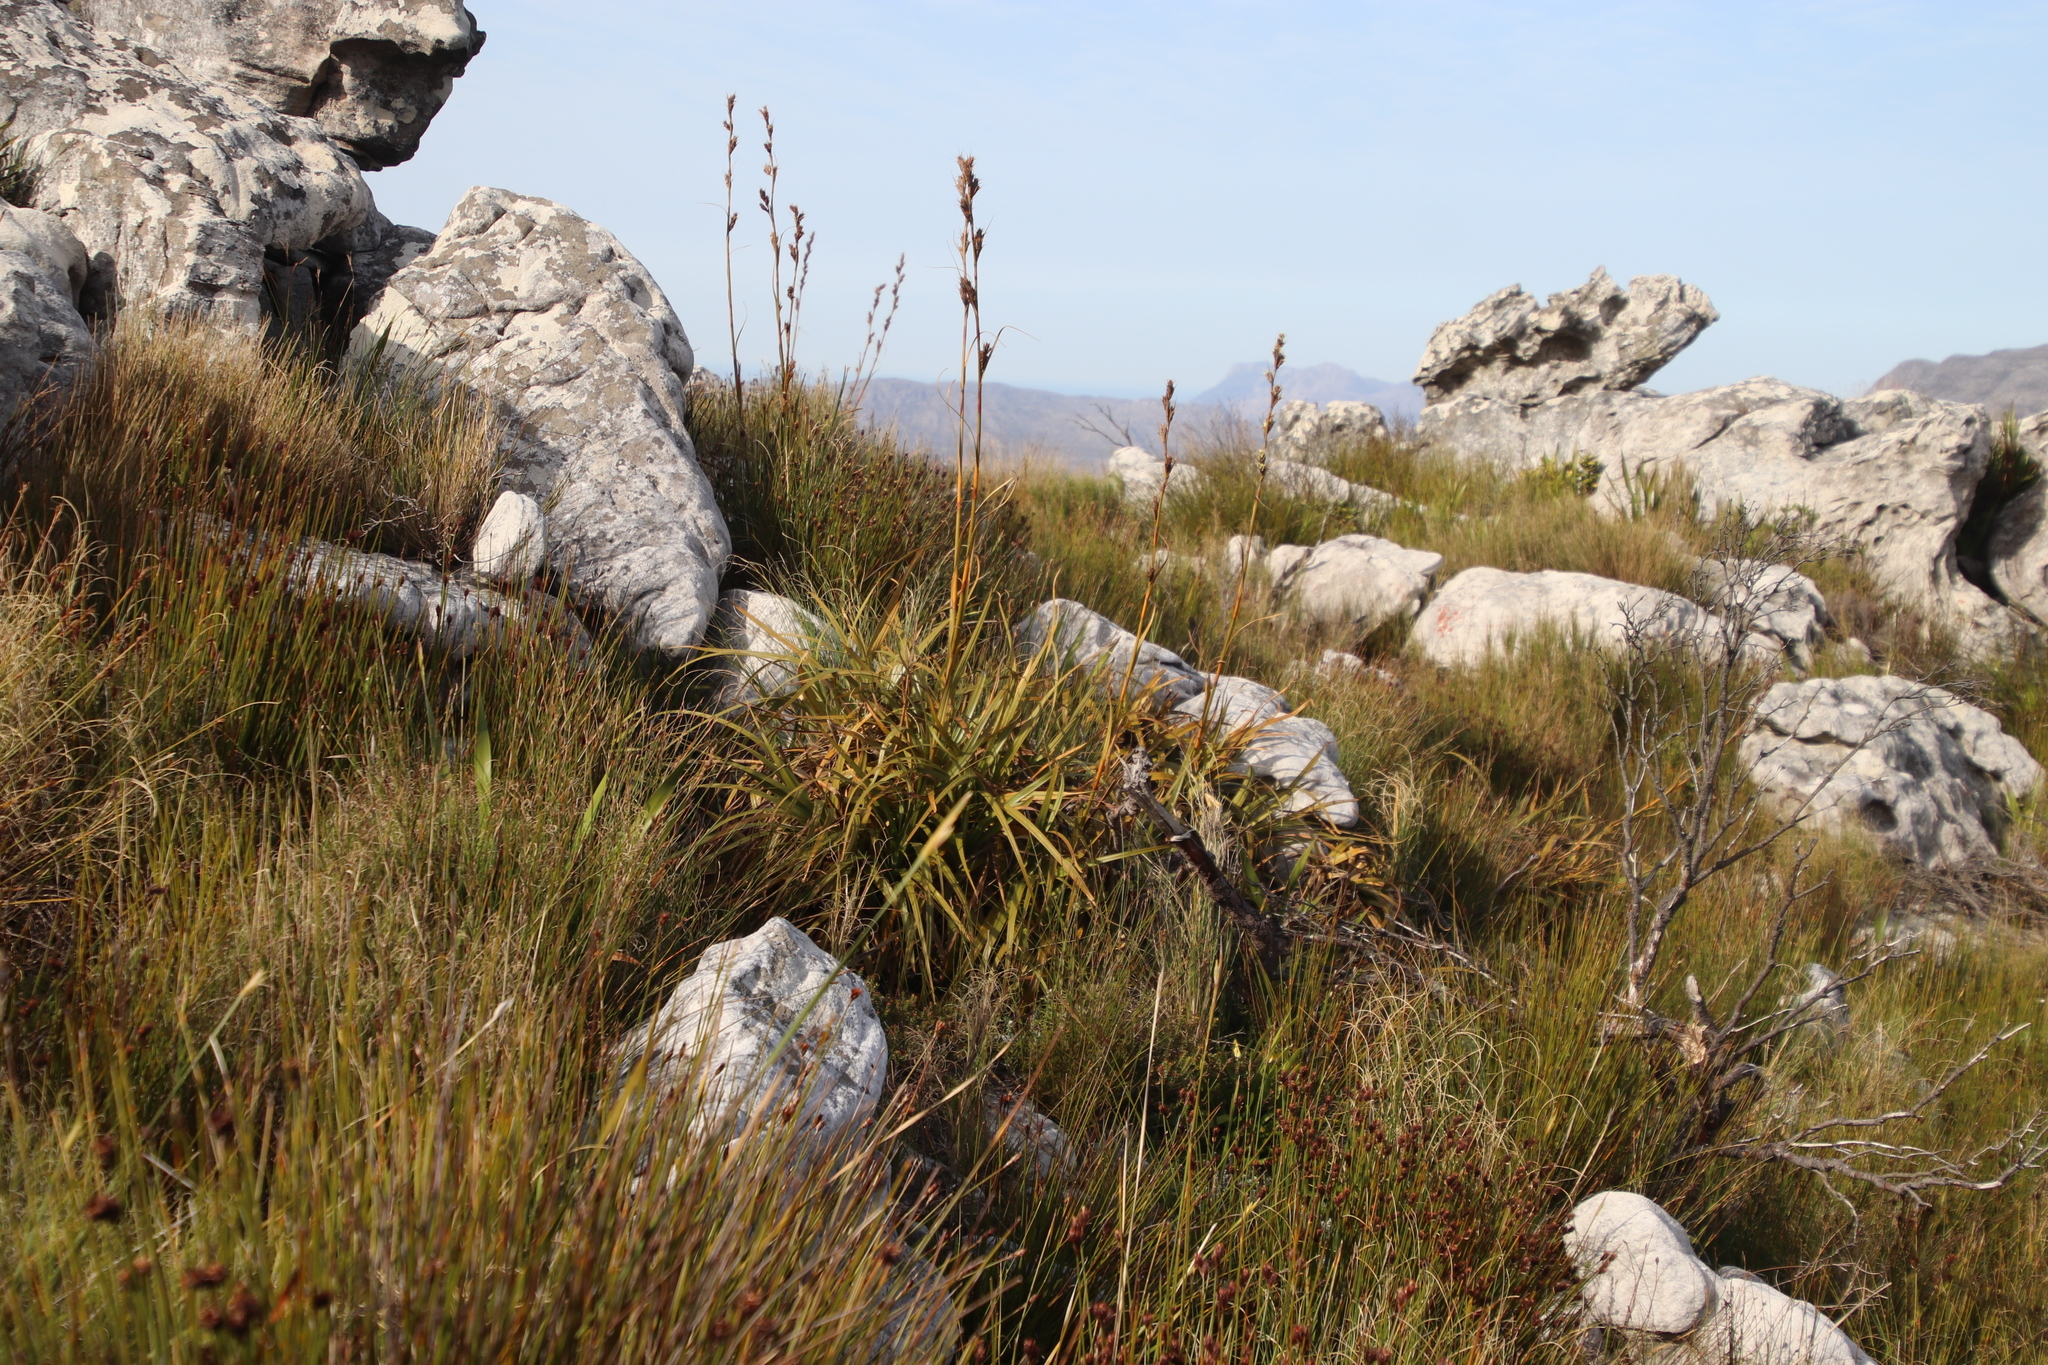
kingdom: Plantae
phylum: Tracheophyta
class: Liliopsida
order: Poales
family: Cyperaceae
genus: Tetraria
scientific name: Tetraria thermalis
